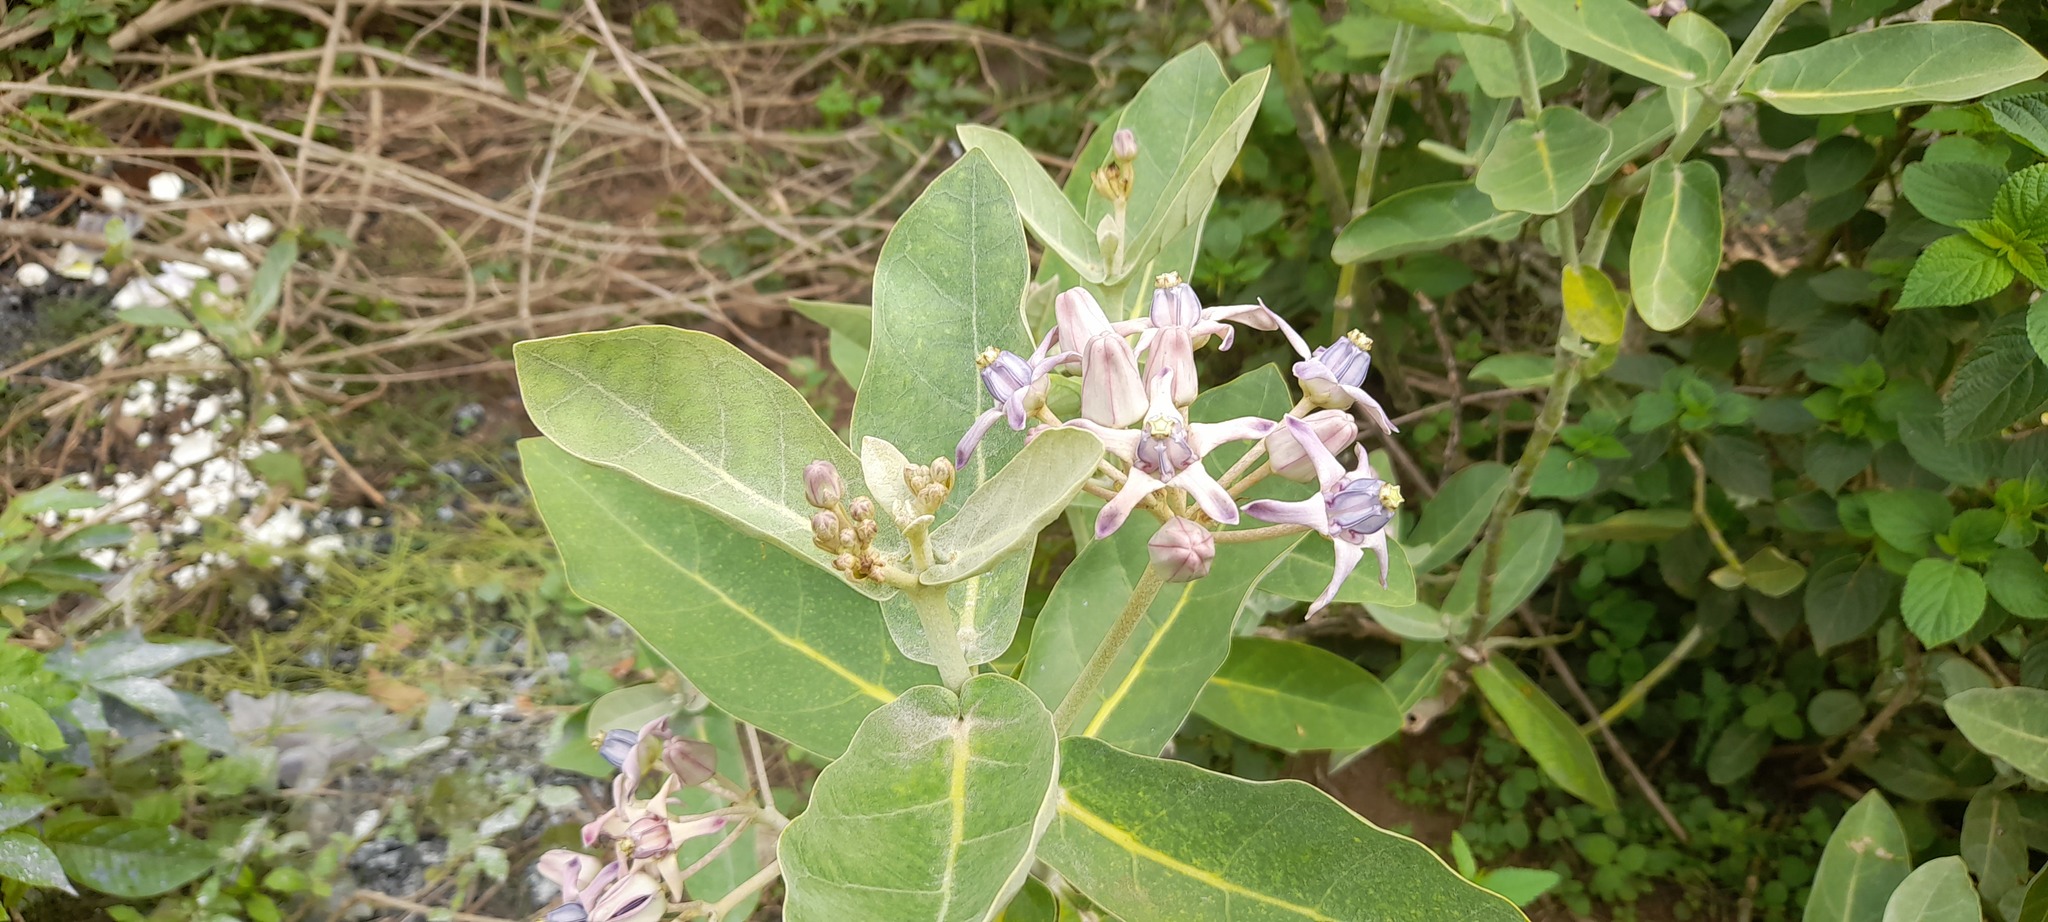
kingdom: Plantae
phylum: Tracheophyta
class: Magnoliopsida
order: Gentianales
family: Apocynaceae
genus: Calotropis
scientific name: Calotropis gigantea
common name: Crown flower
